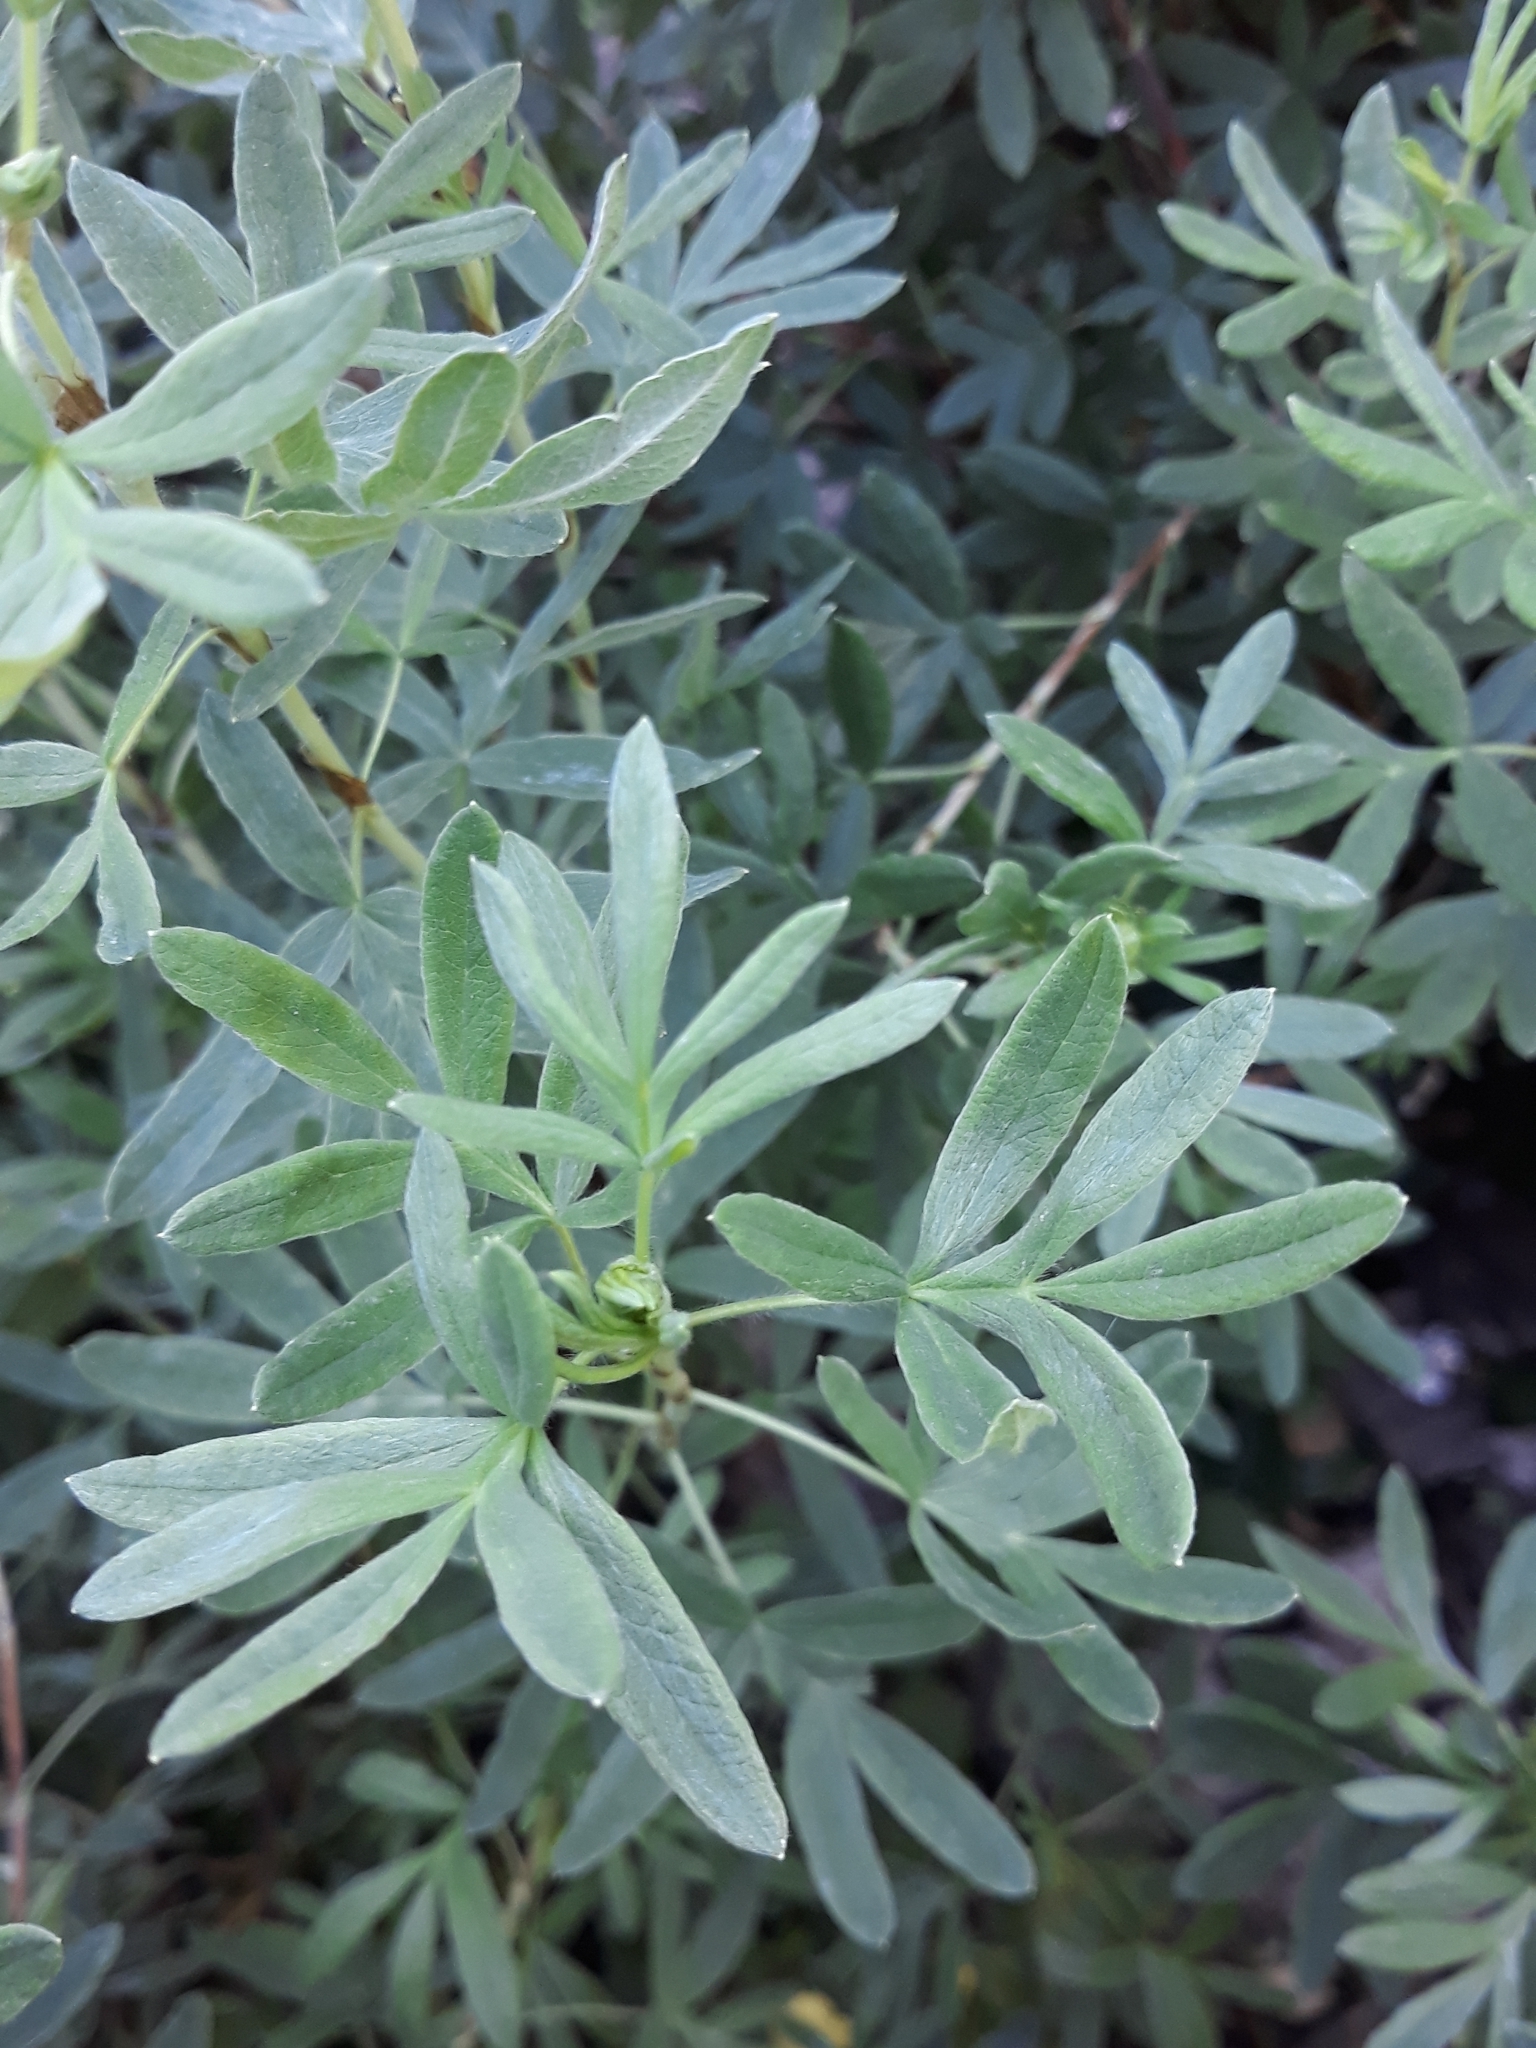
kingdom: Plantae
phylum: Tracheophyta
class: Magnoliopsida
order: Rosales
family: Rosaceae
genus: Dasiphora
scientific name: Dasiphora fruticosa
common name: Shrubby cinquefoil
